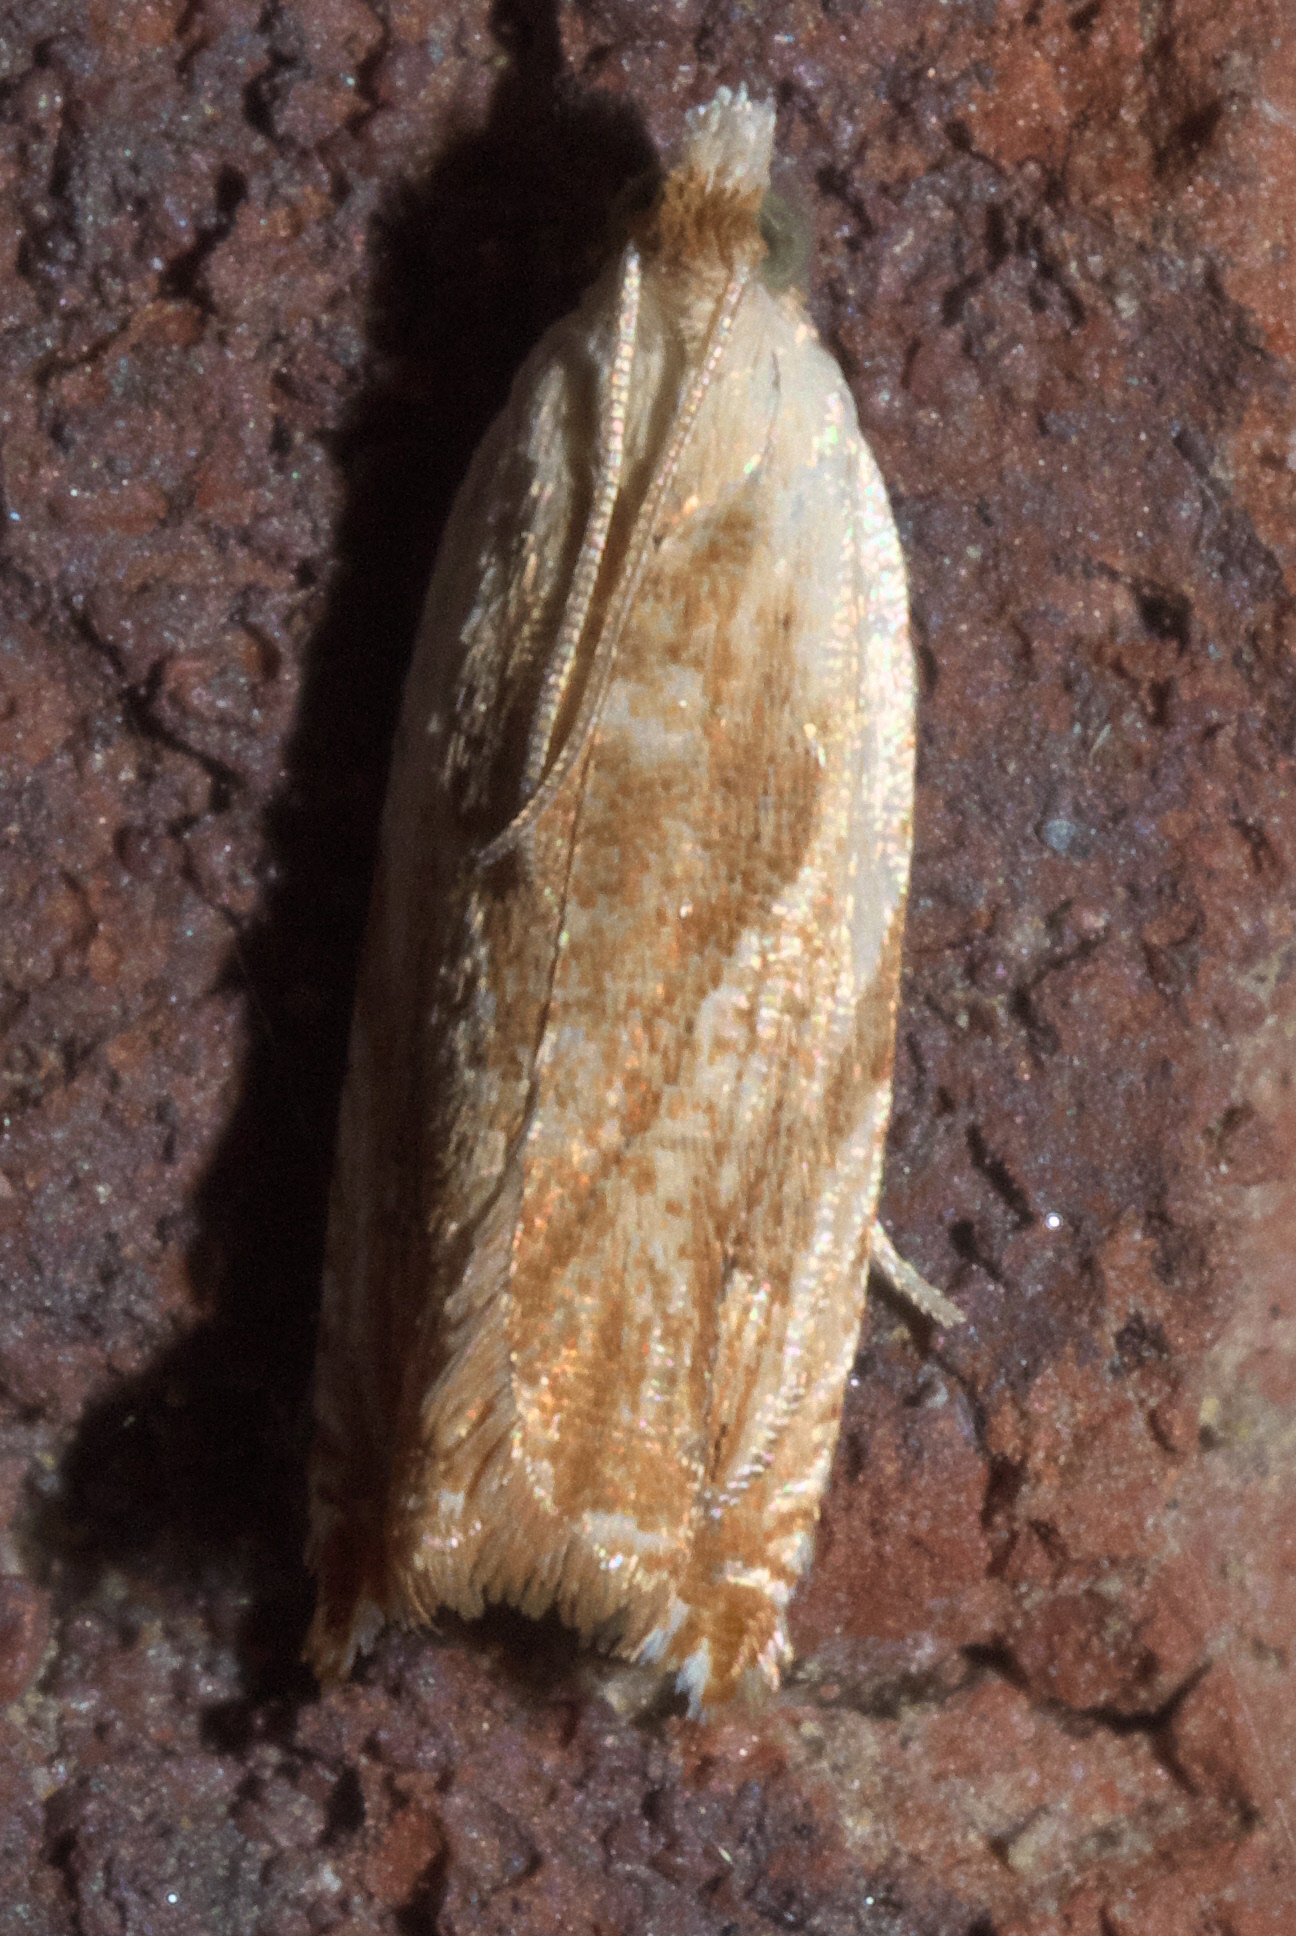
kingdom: Animalia
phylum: Arthropoda
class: Insecta
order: Lepidoptera
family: Tortricidae
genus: Ancylis
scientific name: Ancylis platanana
